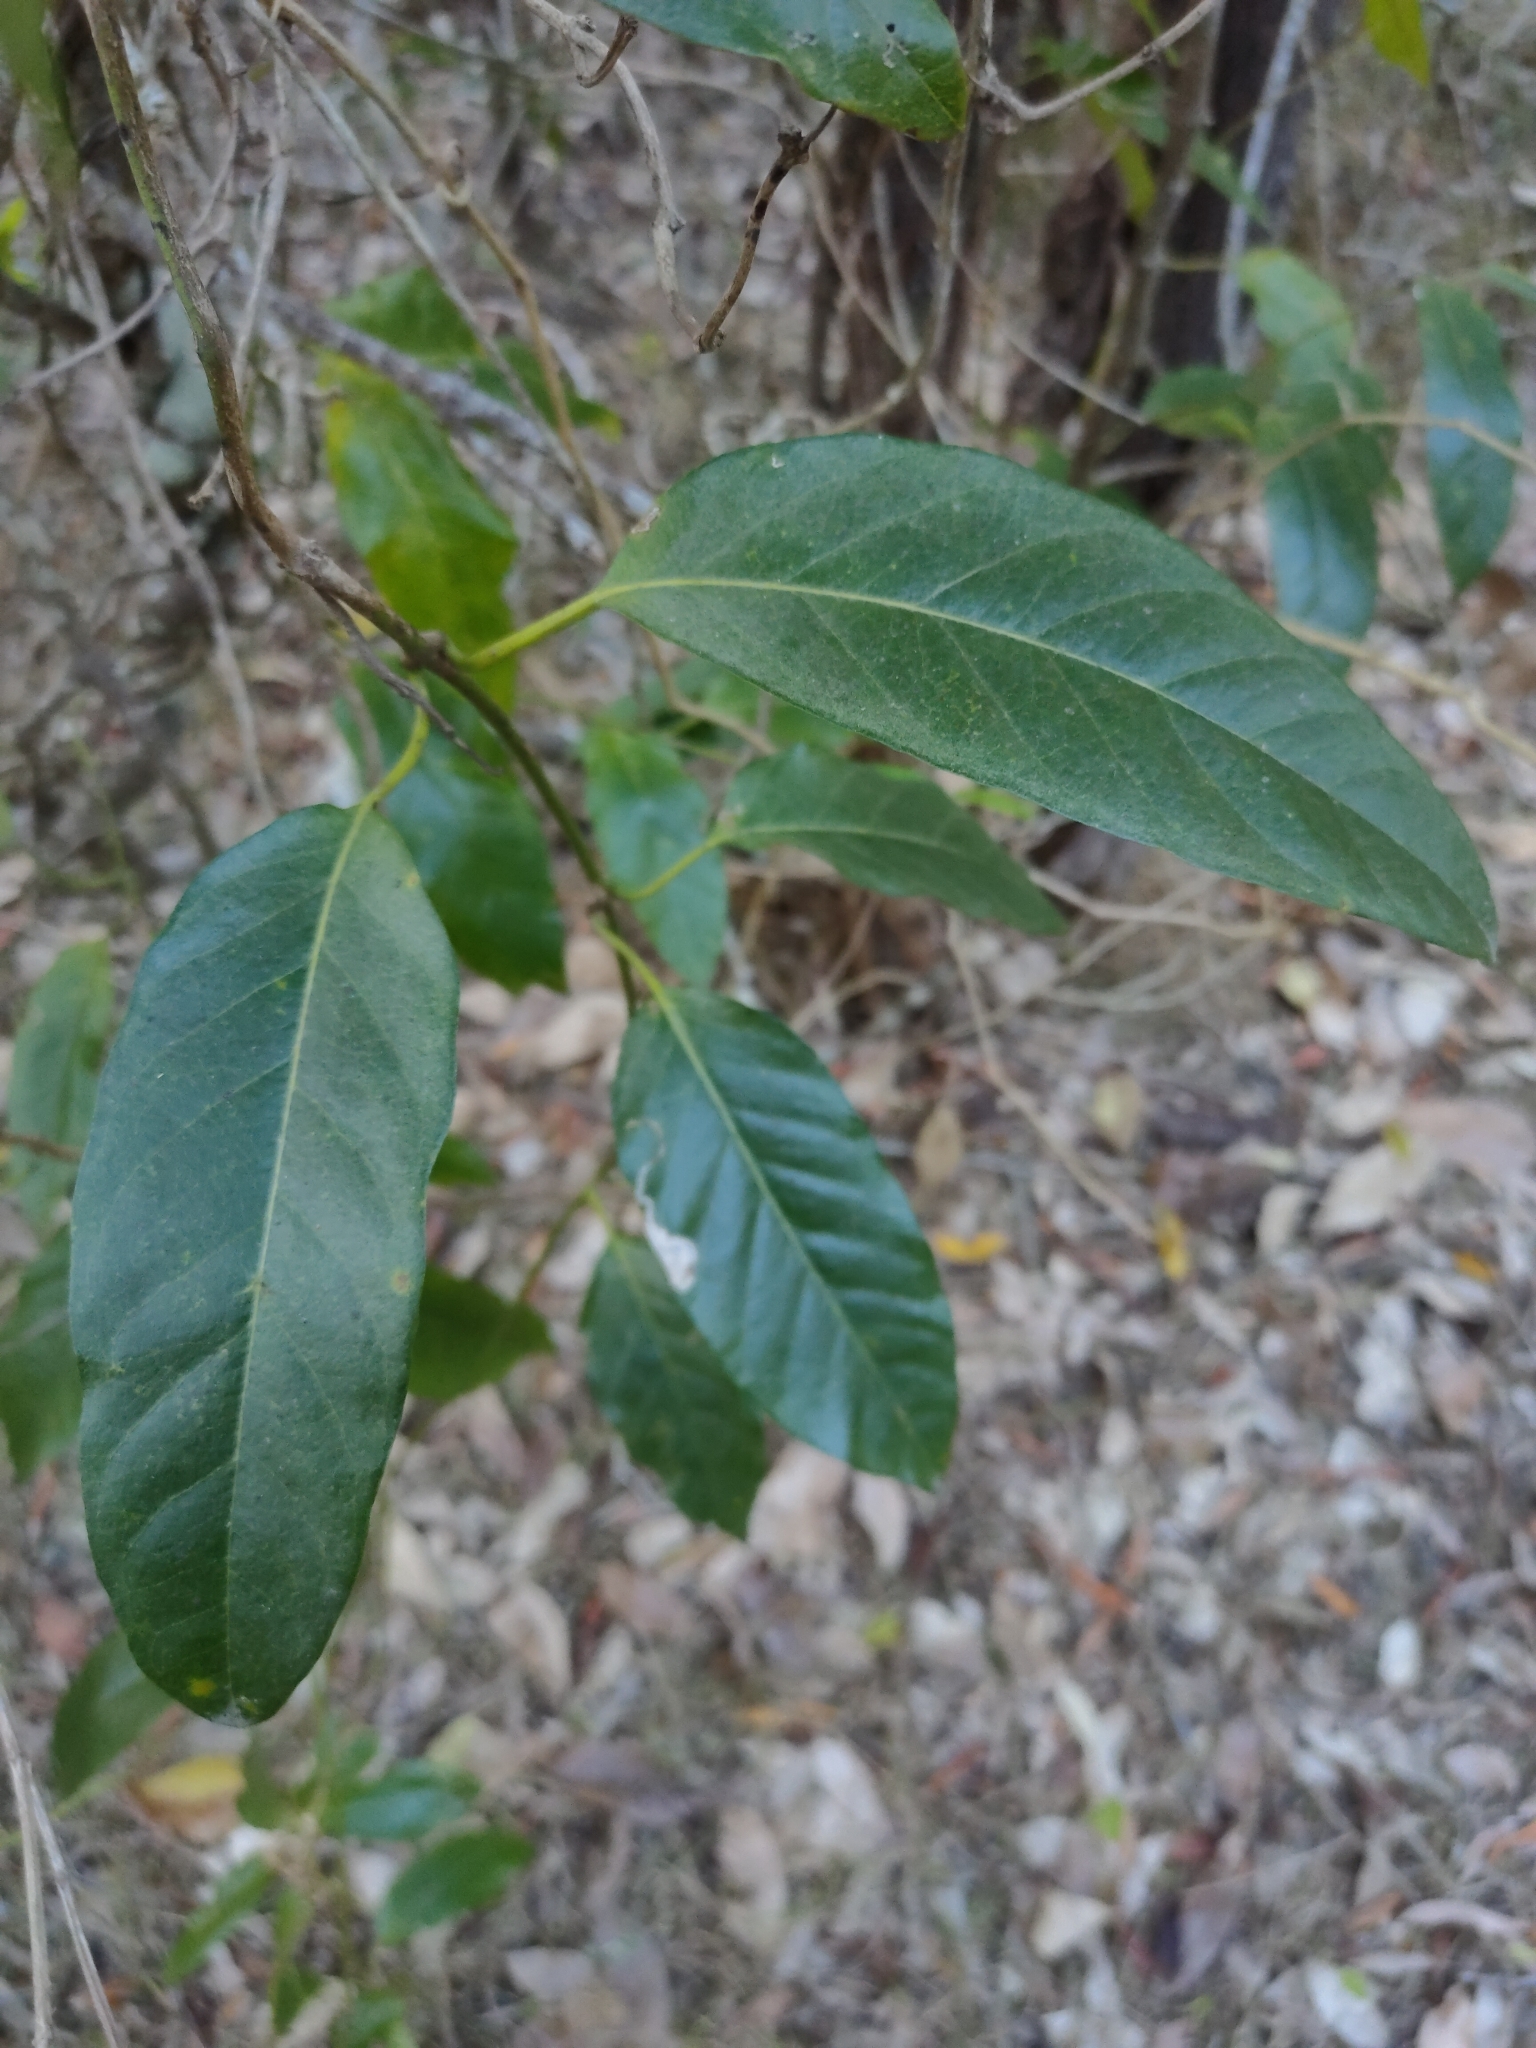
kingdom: Plantae
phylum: Tracheophyta
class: Magnoliopsida
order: Gentianales
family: Apocynaceae
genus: Parsonsia
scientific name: Parsonsia straminea
